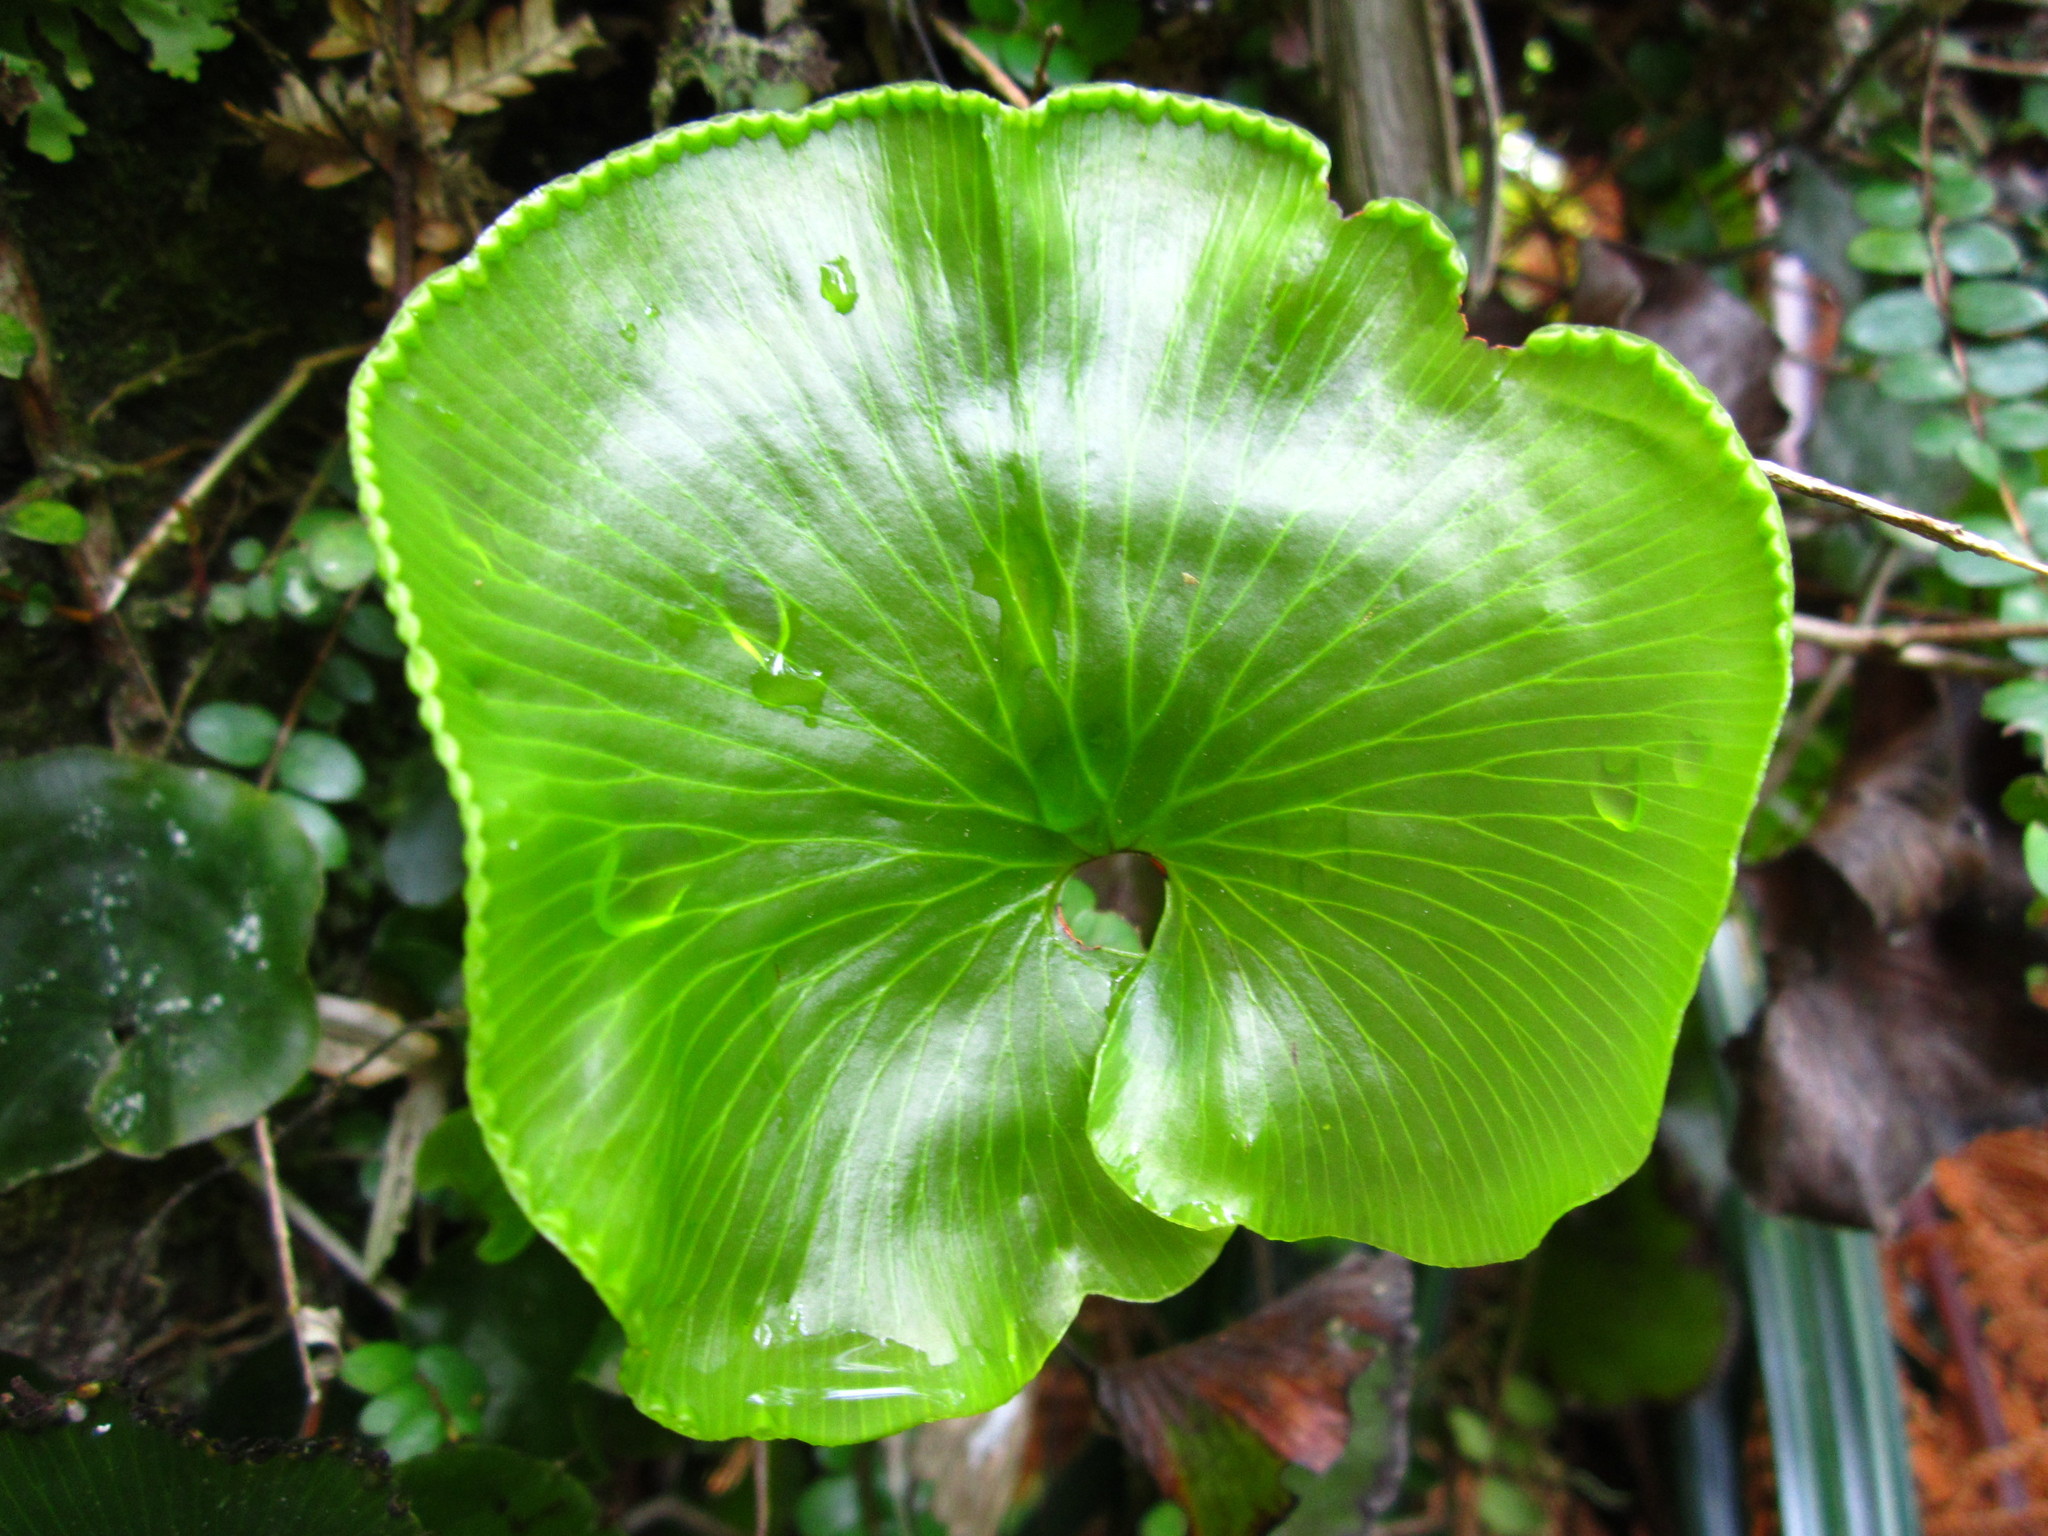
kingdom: Plantae
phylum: Tracheophyta
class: Polypodiopsida
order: Hymenophyllales
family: Hymenophyllaceae
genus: Hymenophyllum
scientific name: Hymenophyllum nephrophyllum
